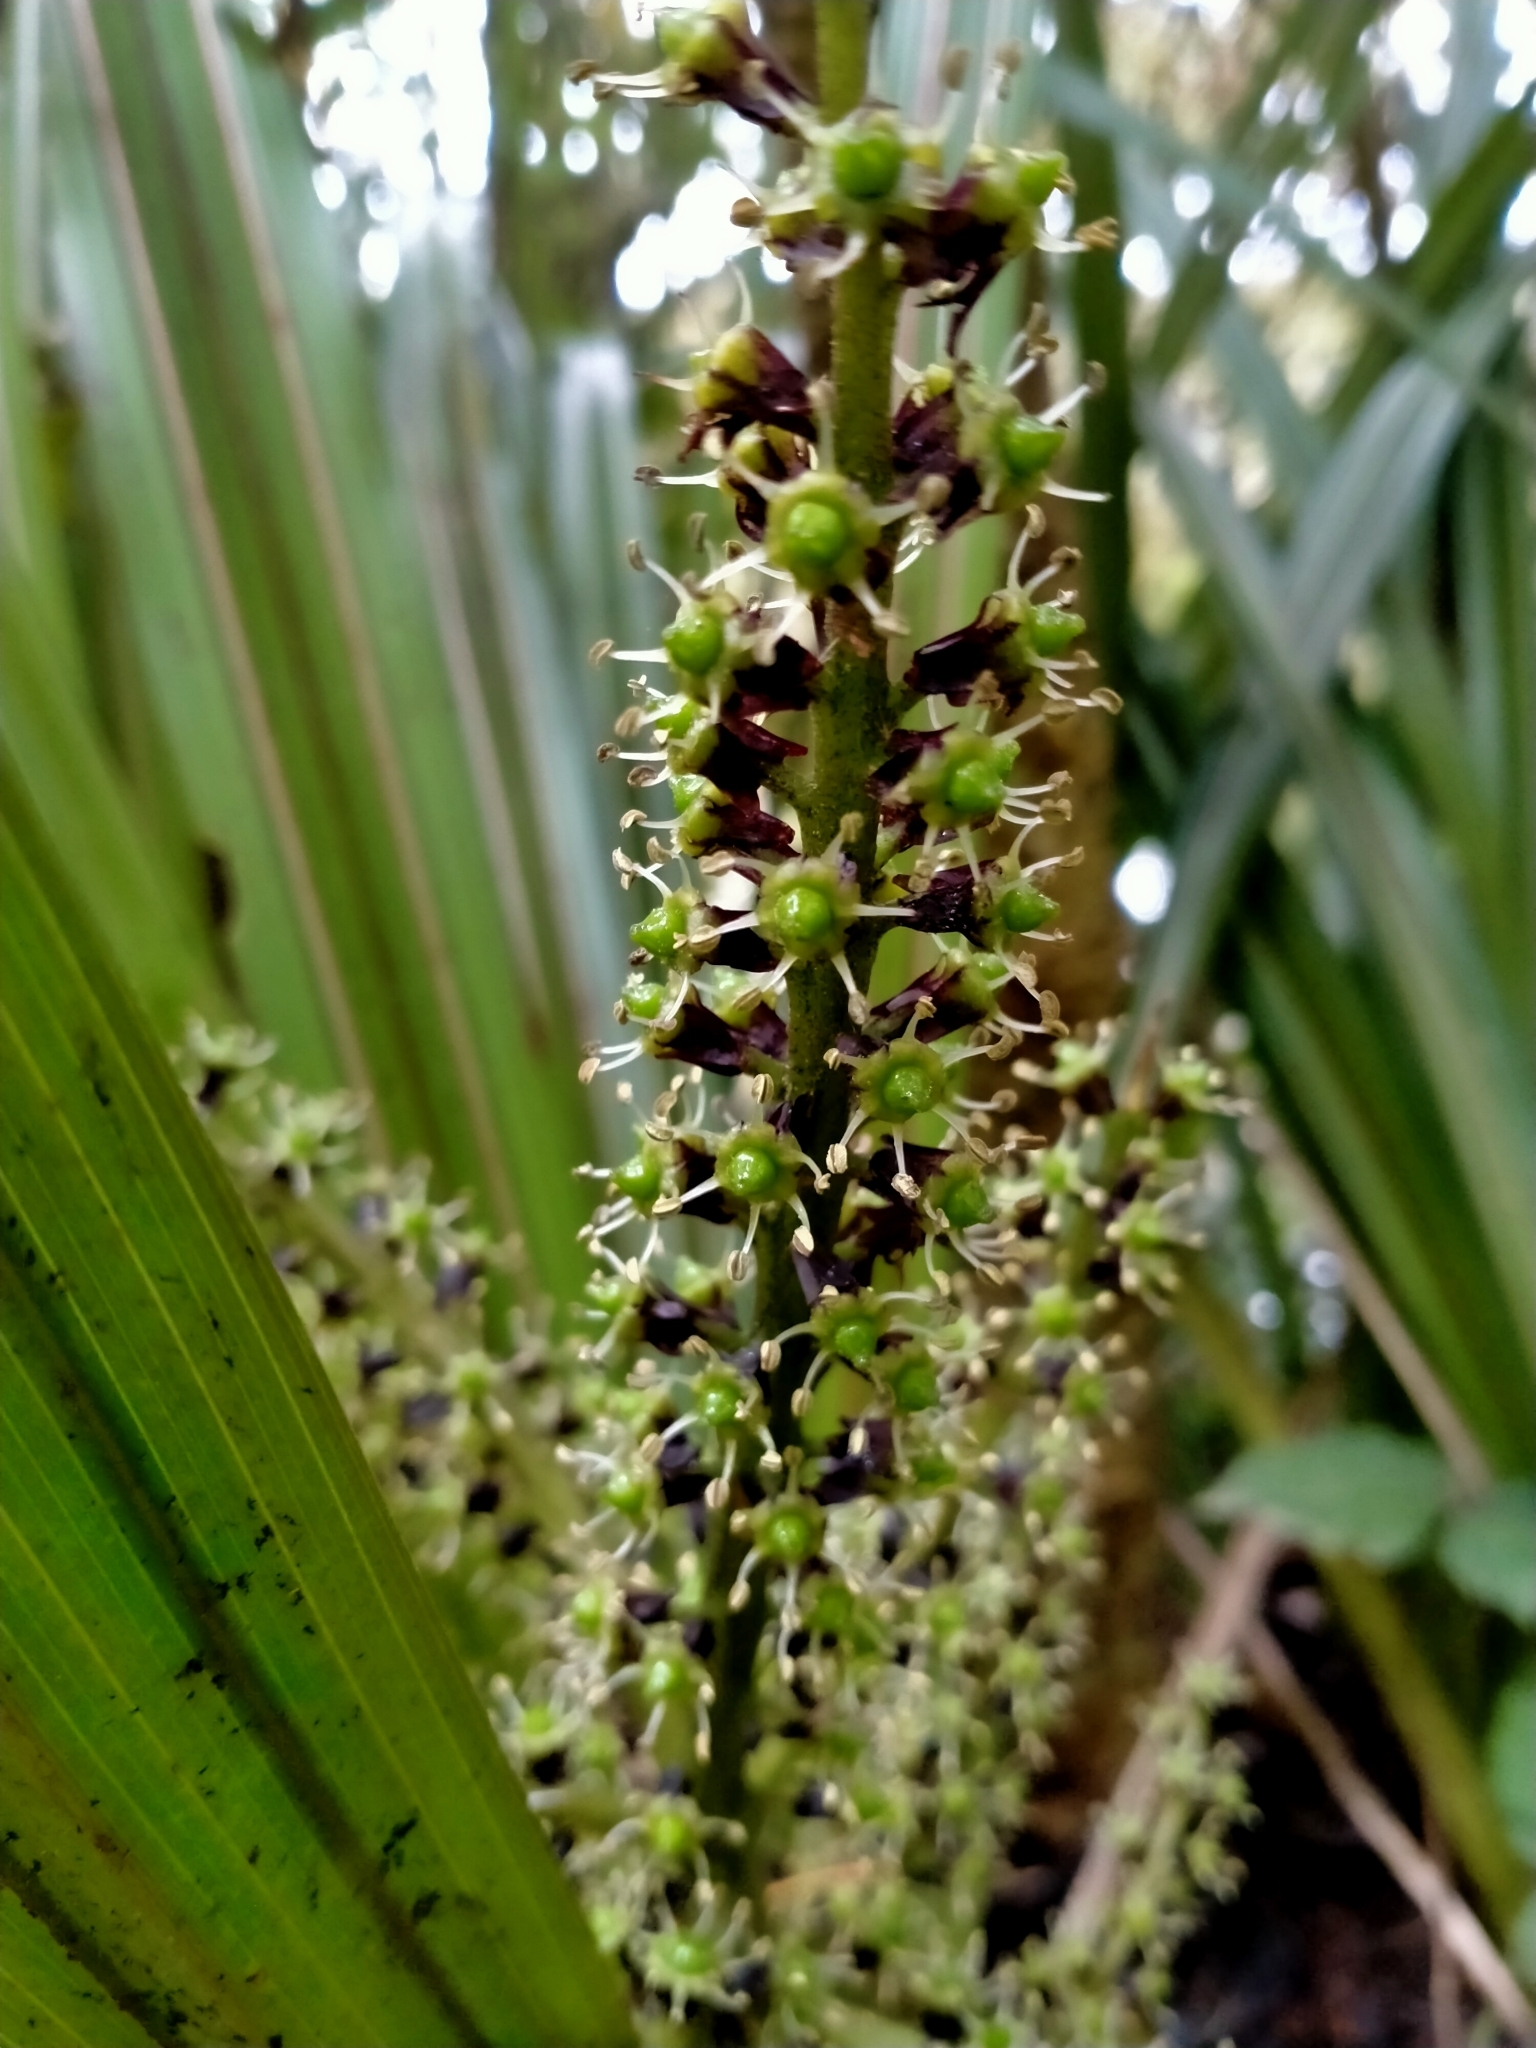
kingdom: Plantae
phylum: Tracheophyta
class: Liliopsida
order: Asparagales
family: Asteliaceae
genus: Astelia
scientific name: Astelia fragrans
